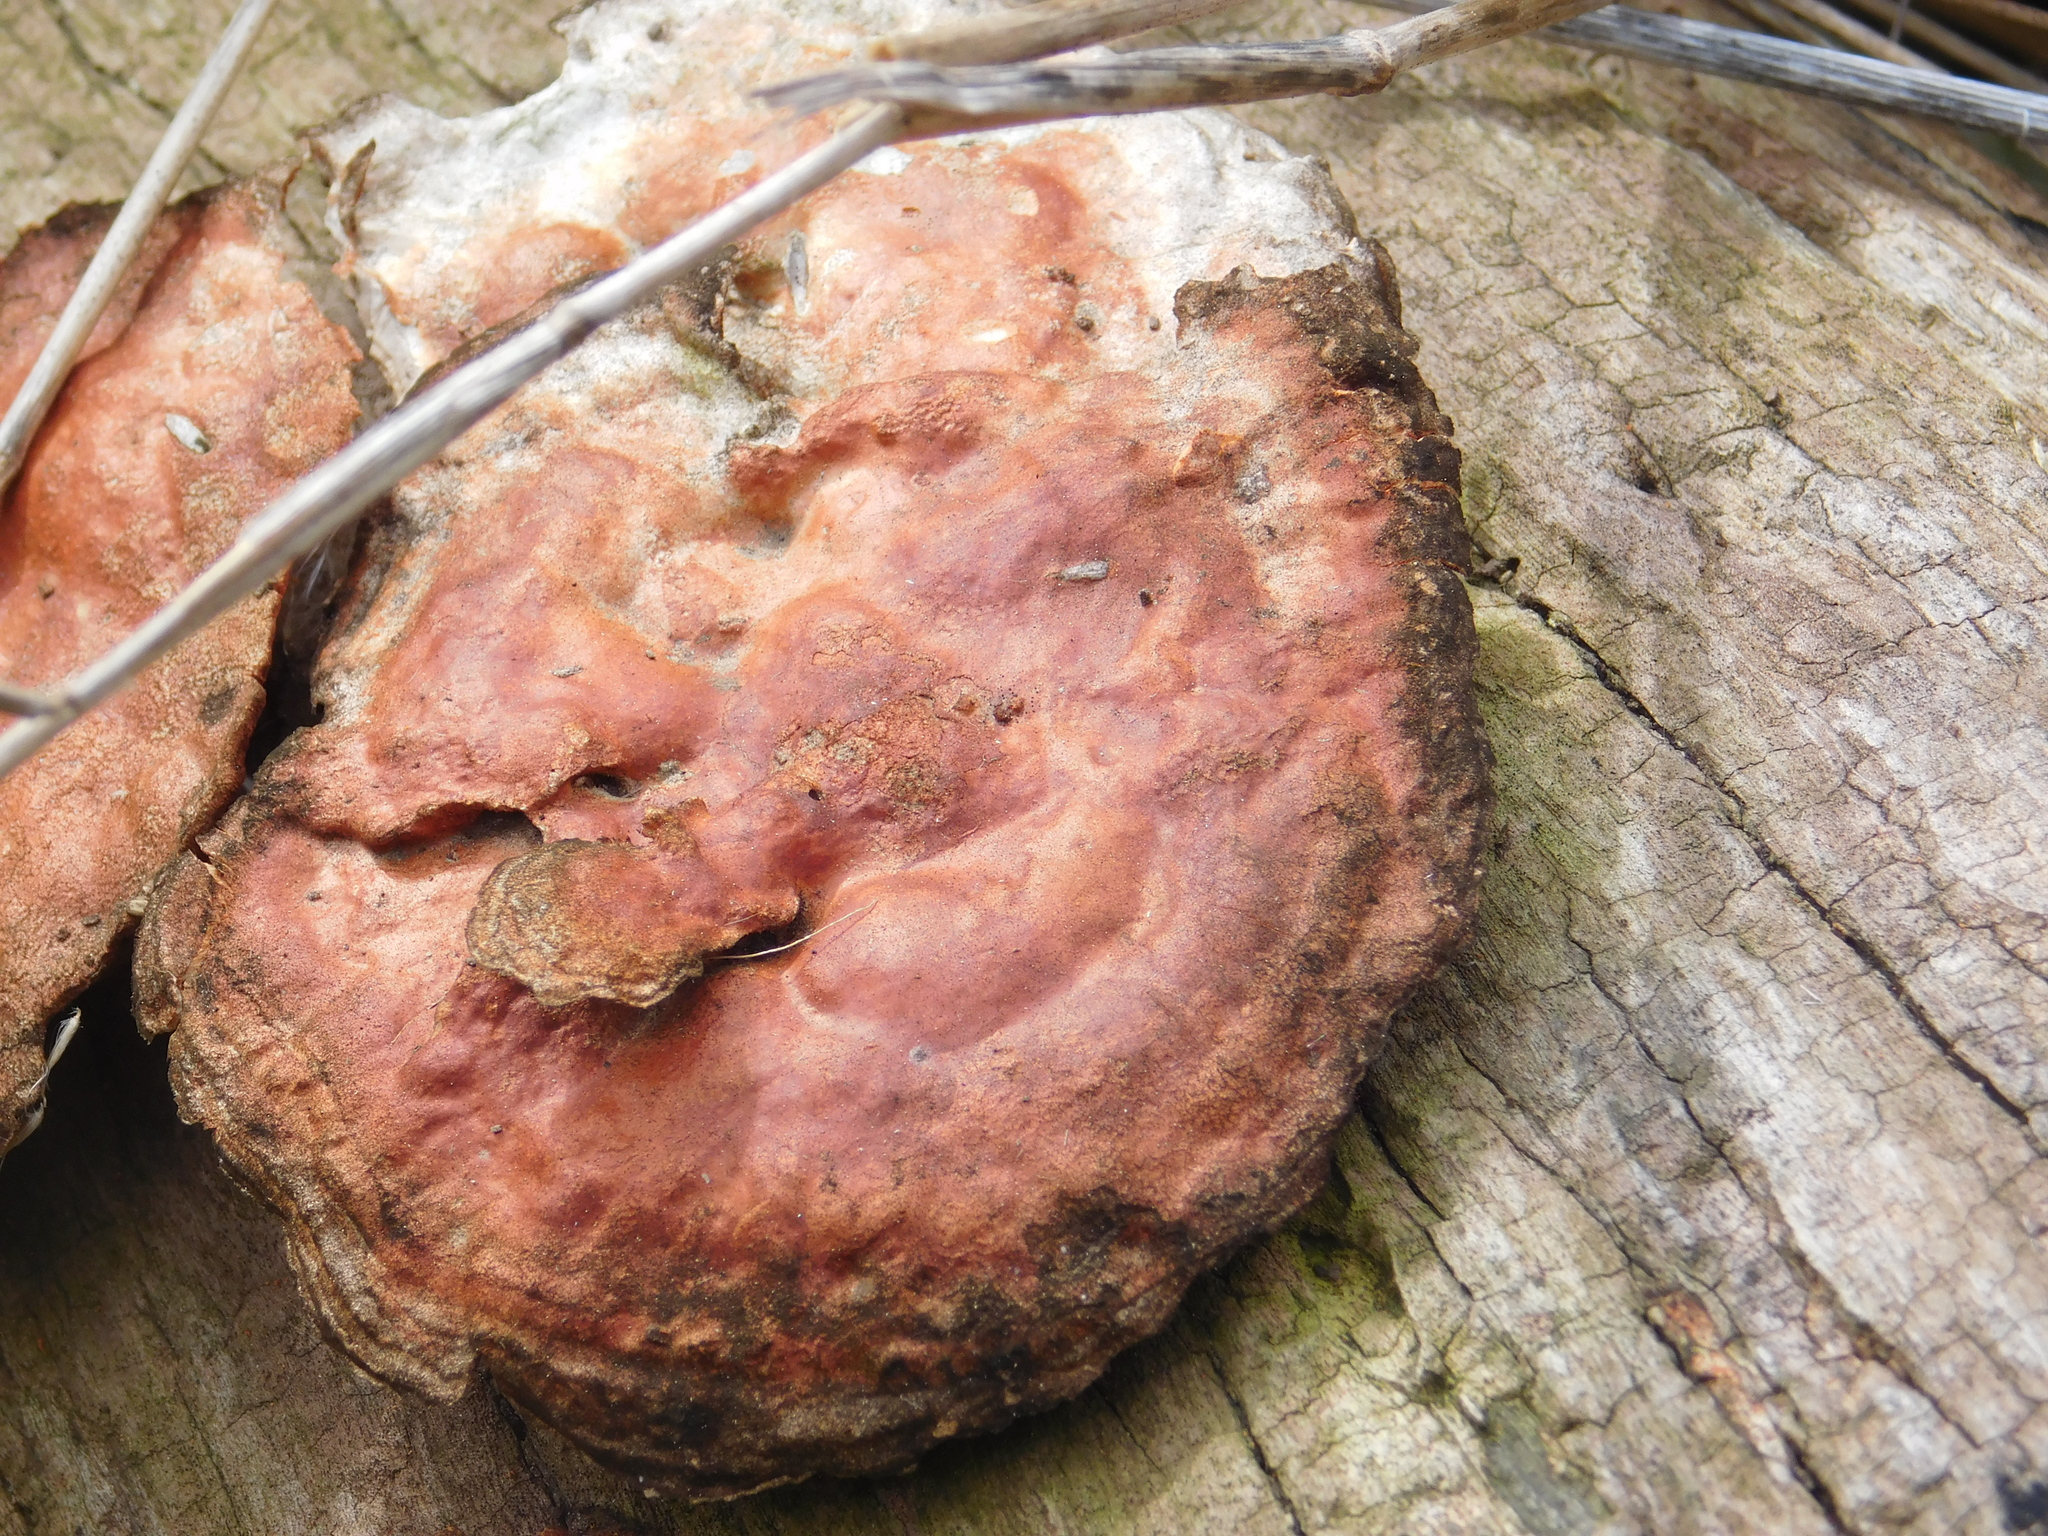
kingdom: Fungi
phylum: Basidiomycota
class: Agaricomycetes
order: Polyporales
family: Polyporaceae
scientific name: Polyporaceae
